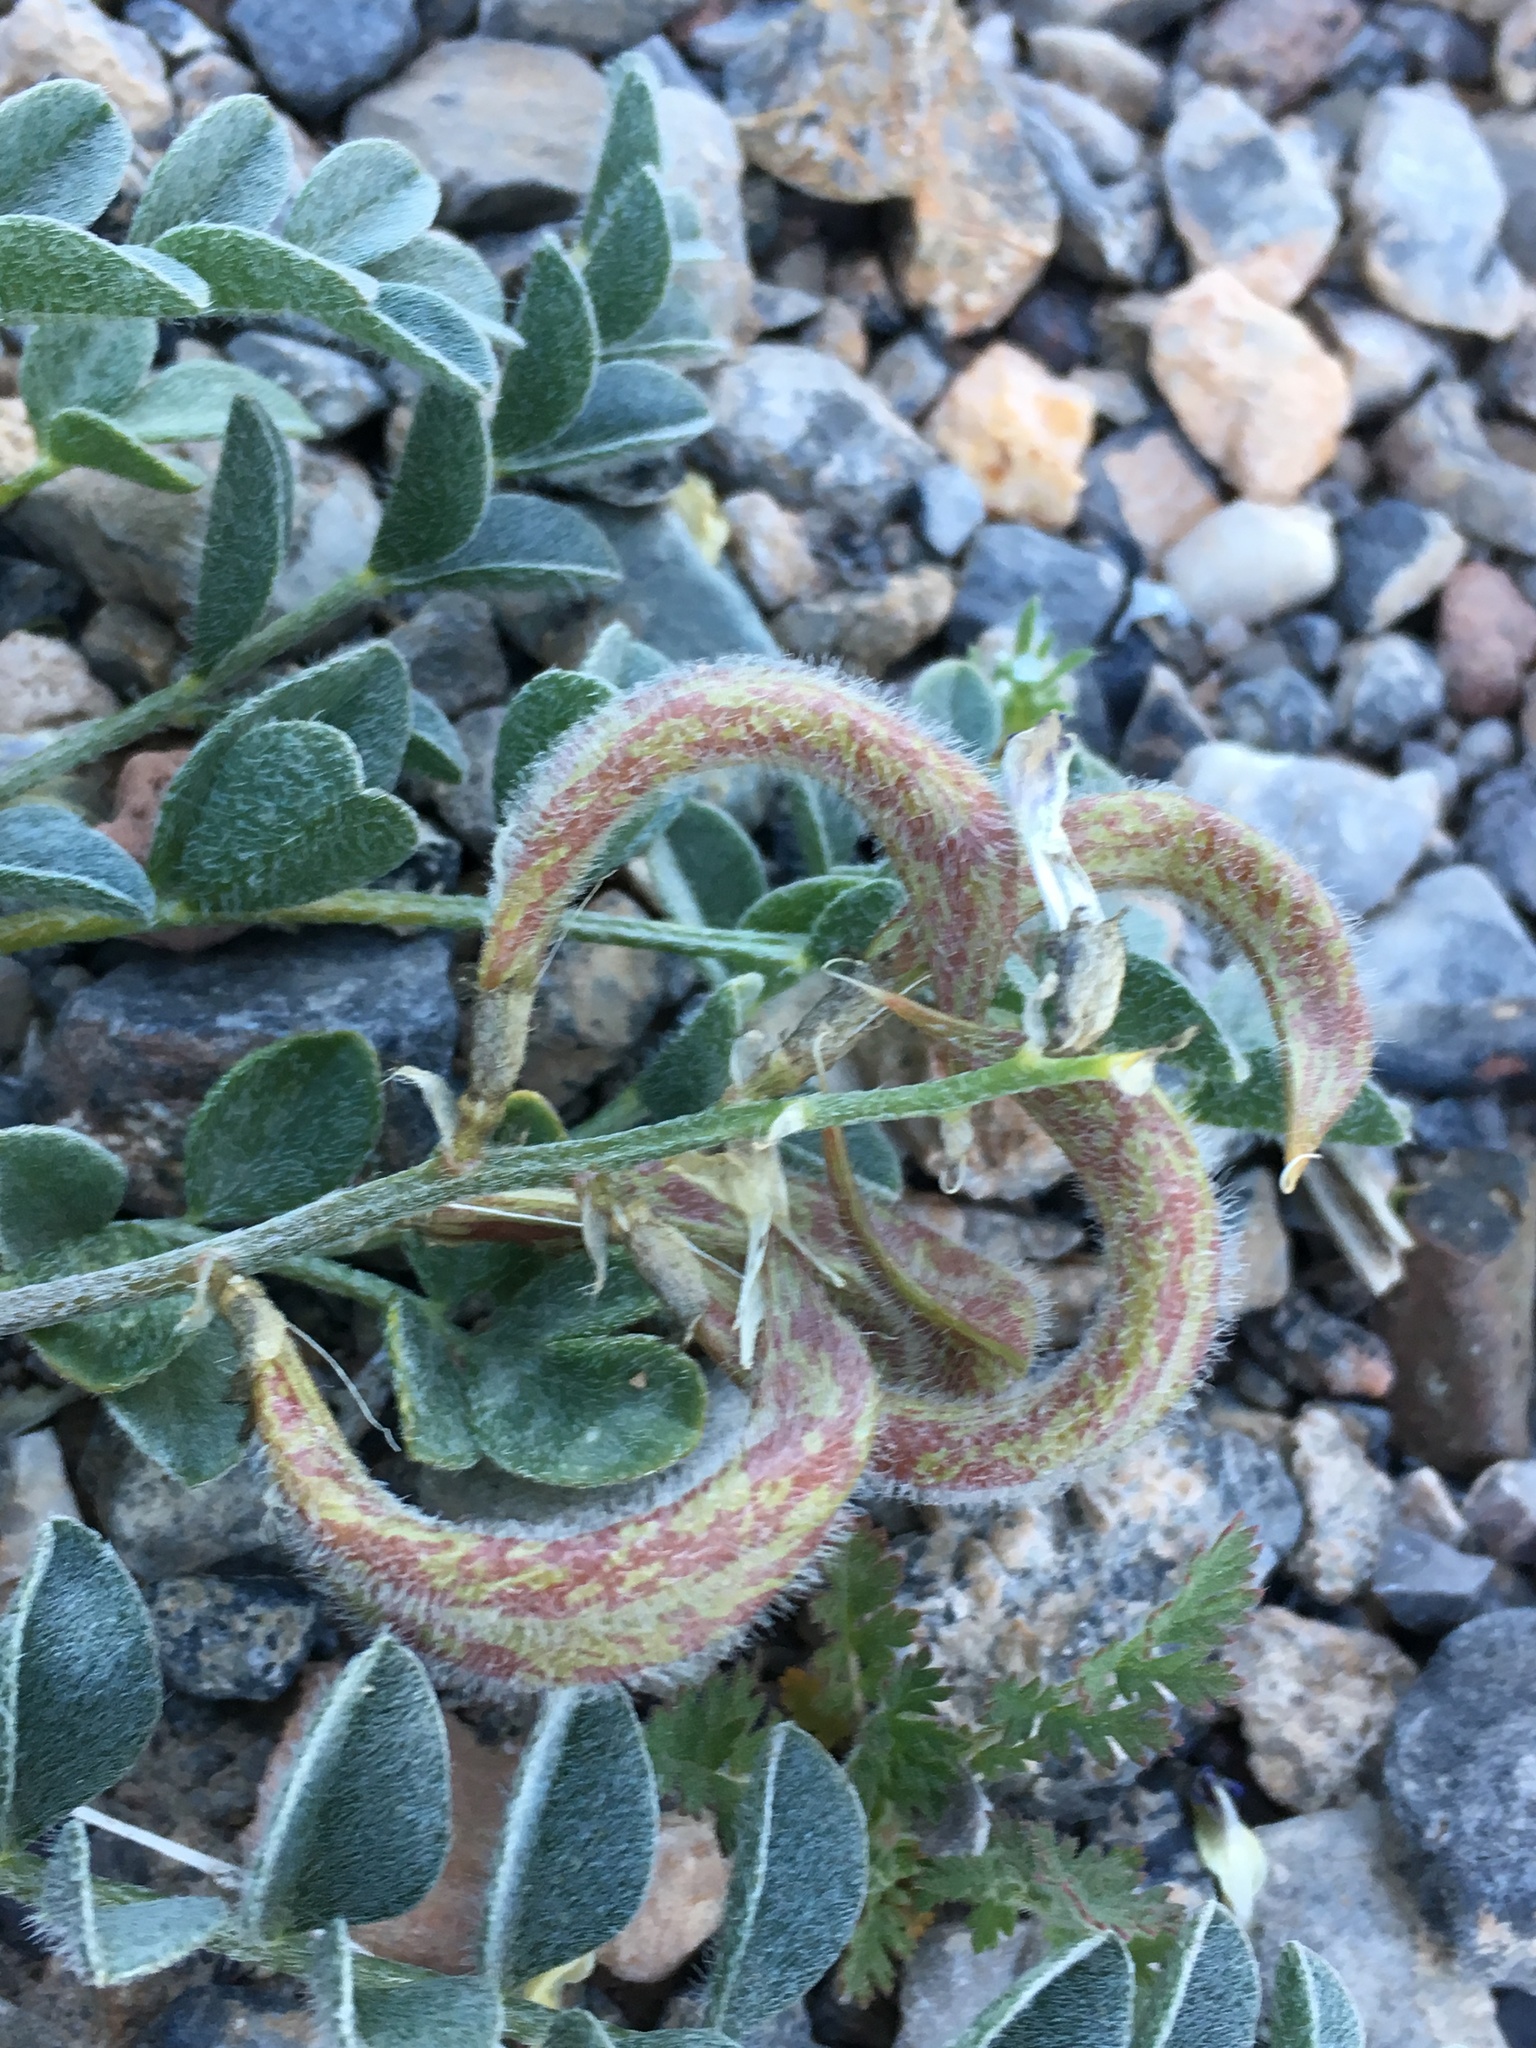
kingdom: Plantae
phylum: Tracheophyta
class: Magnoliopsida
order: Fabales
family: Fabaceae
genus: Astragalus
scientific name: Astragalus layneae
